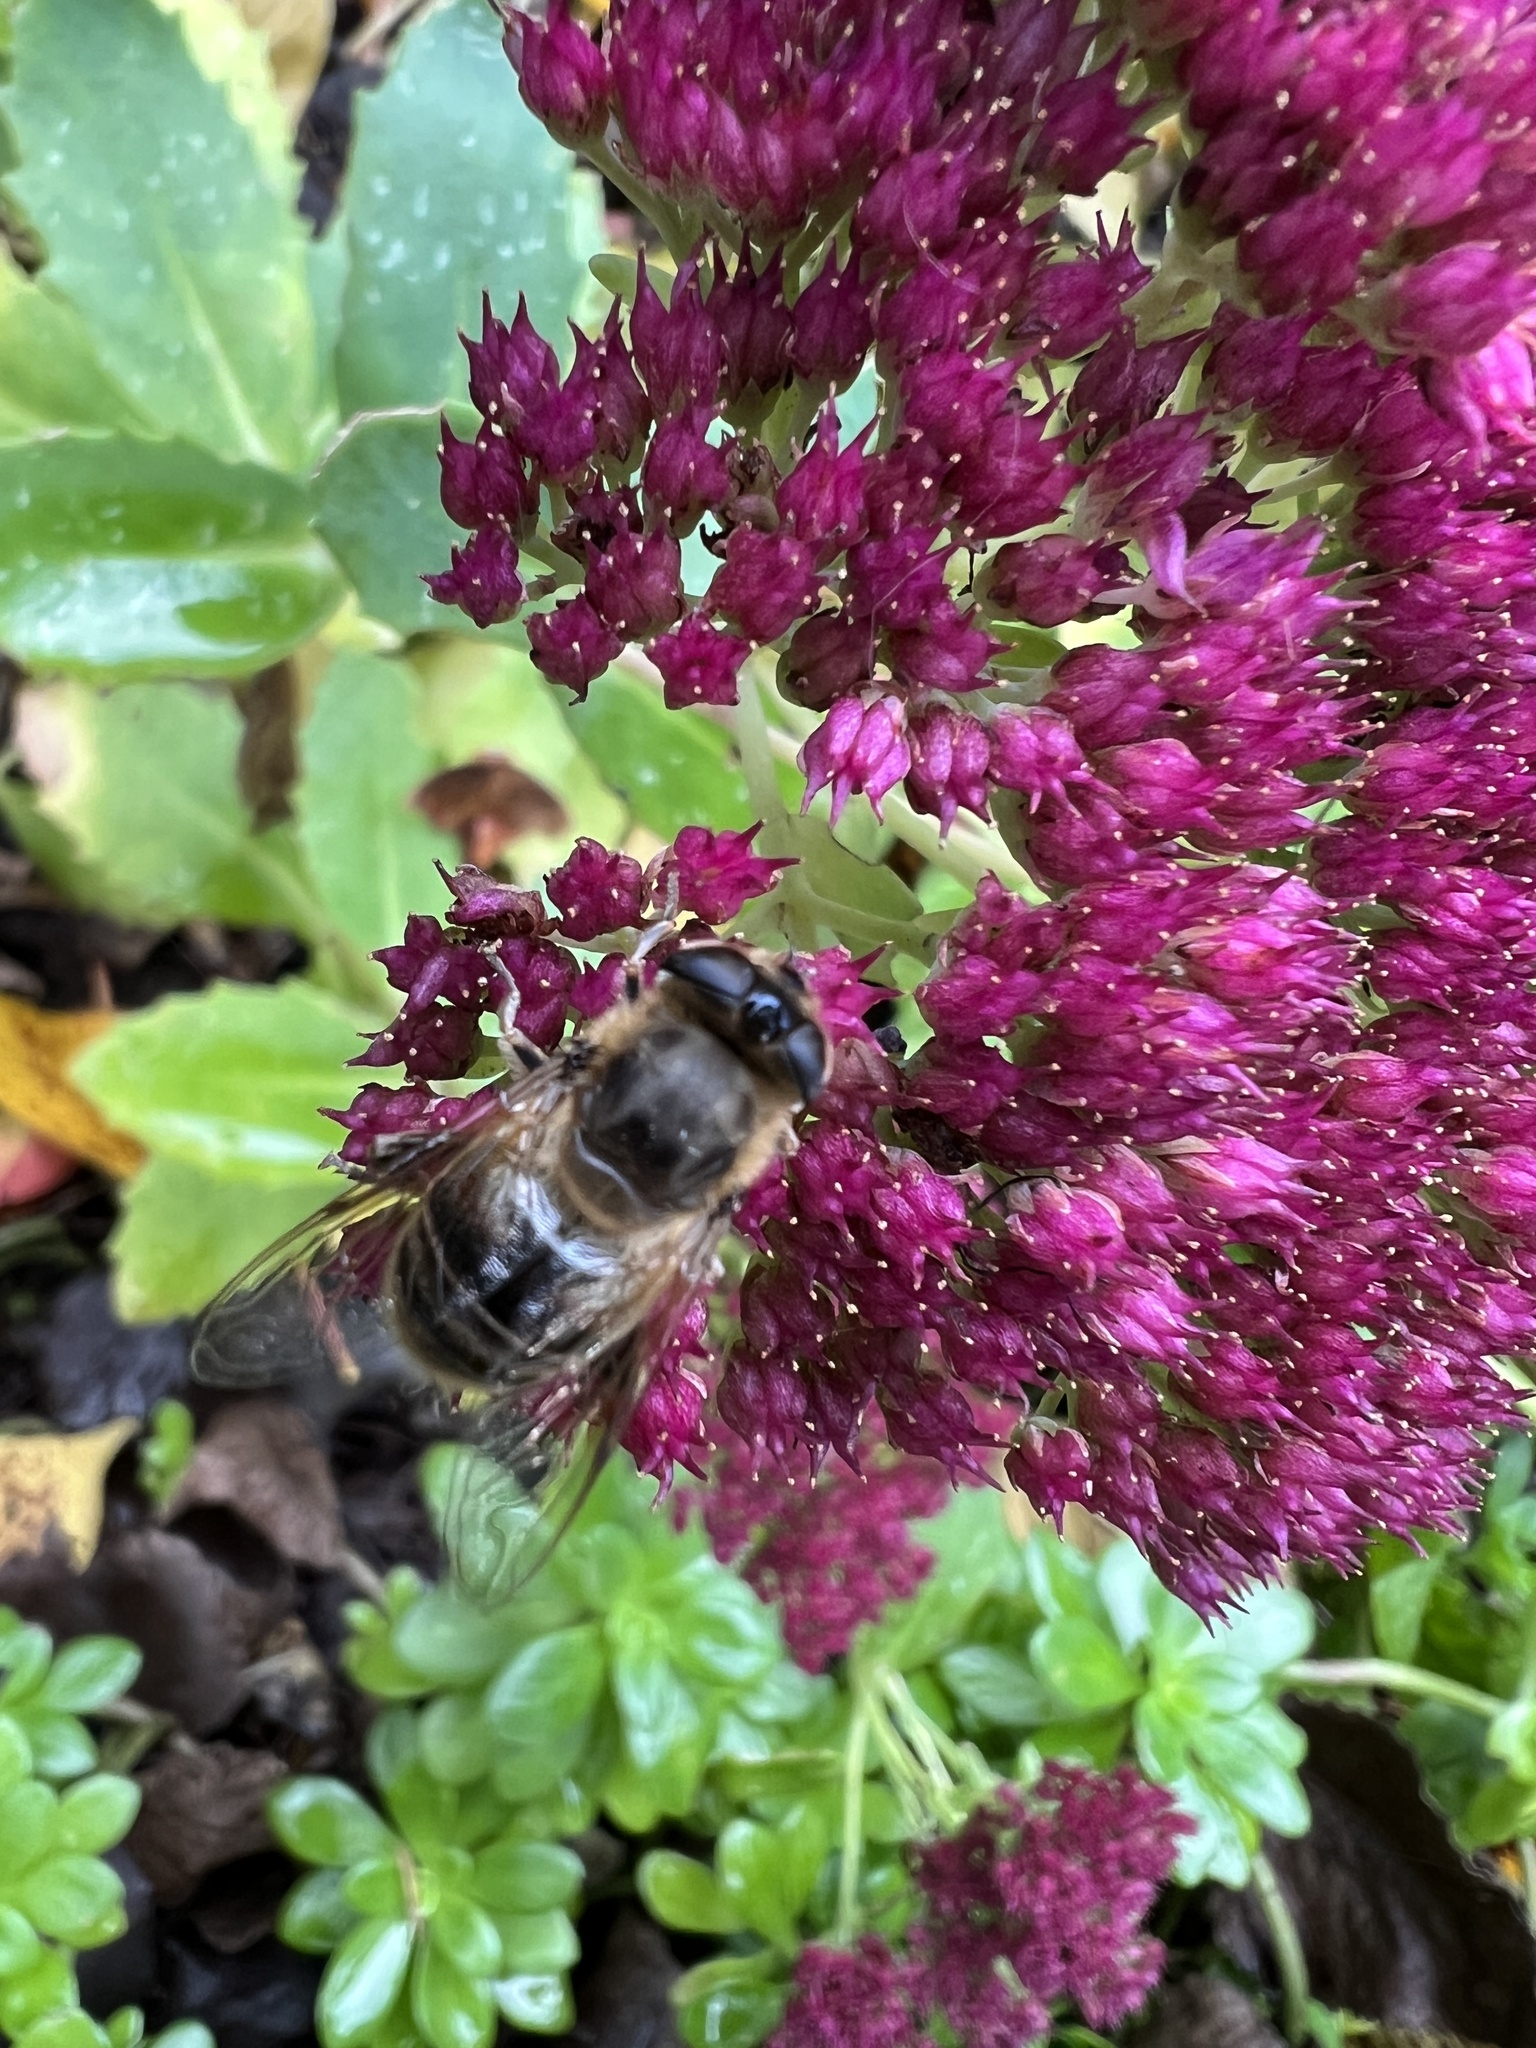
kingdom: Animalia
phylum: Arthropoda
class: Insecta
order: Diptera
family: Syrphidae
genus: Eristalis
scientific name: Eristalis tenax
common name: Drone fly
